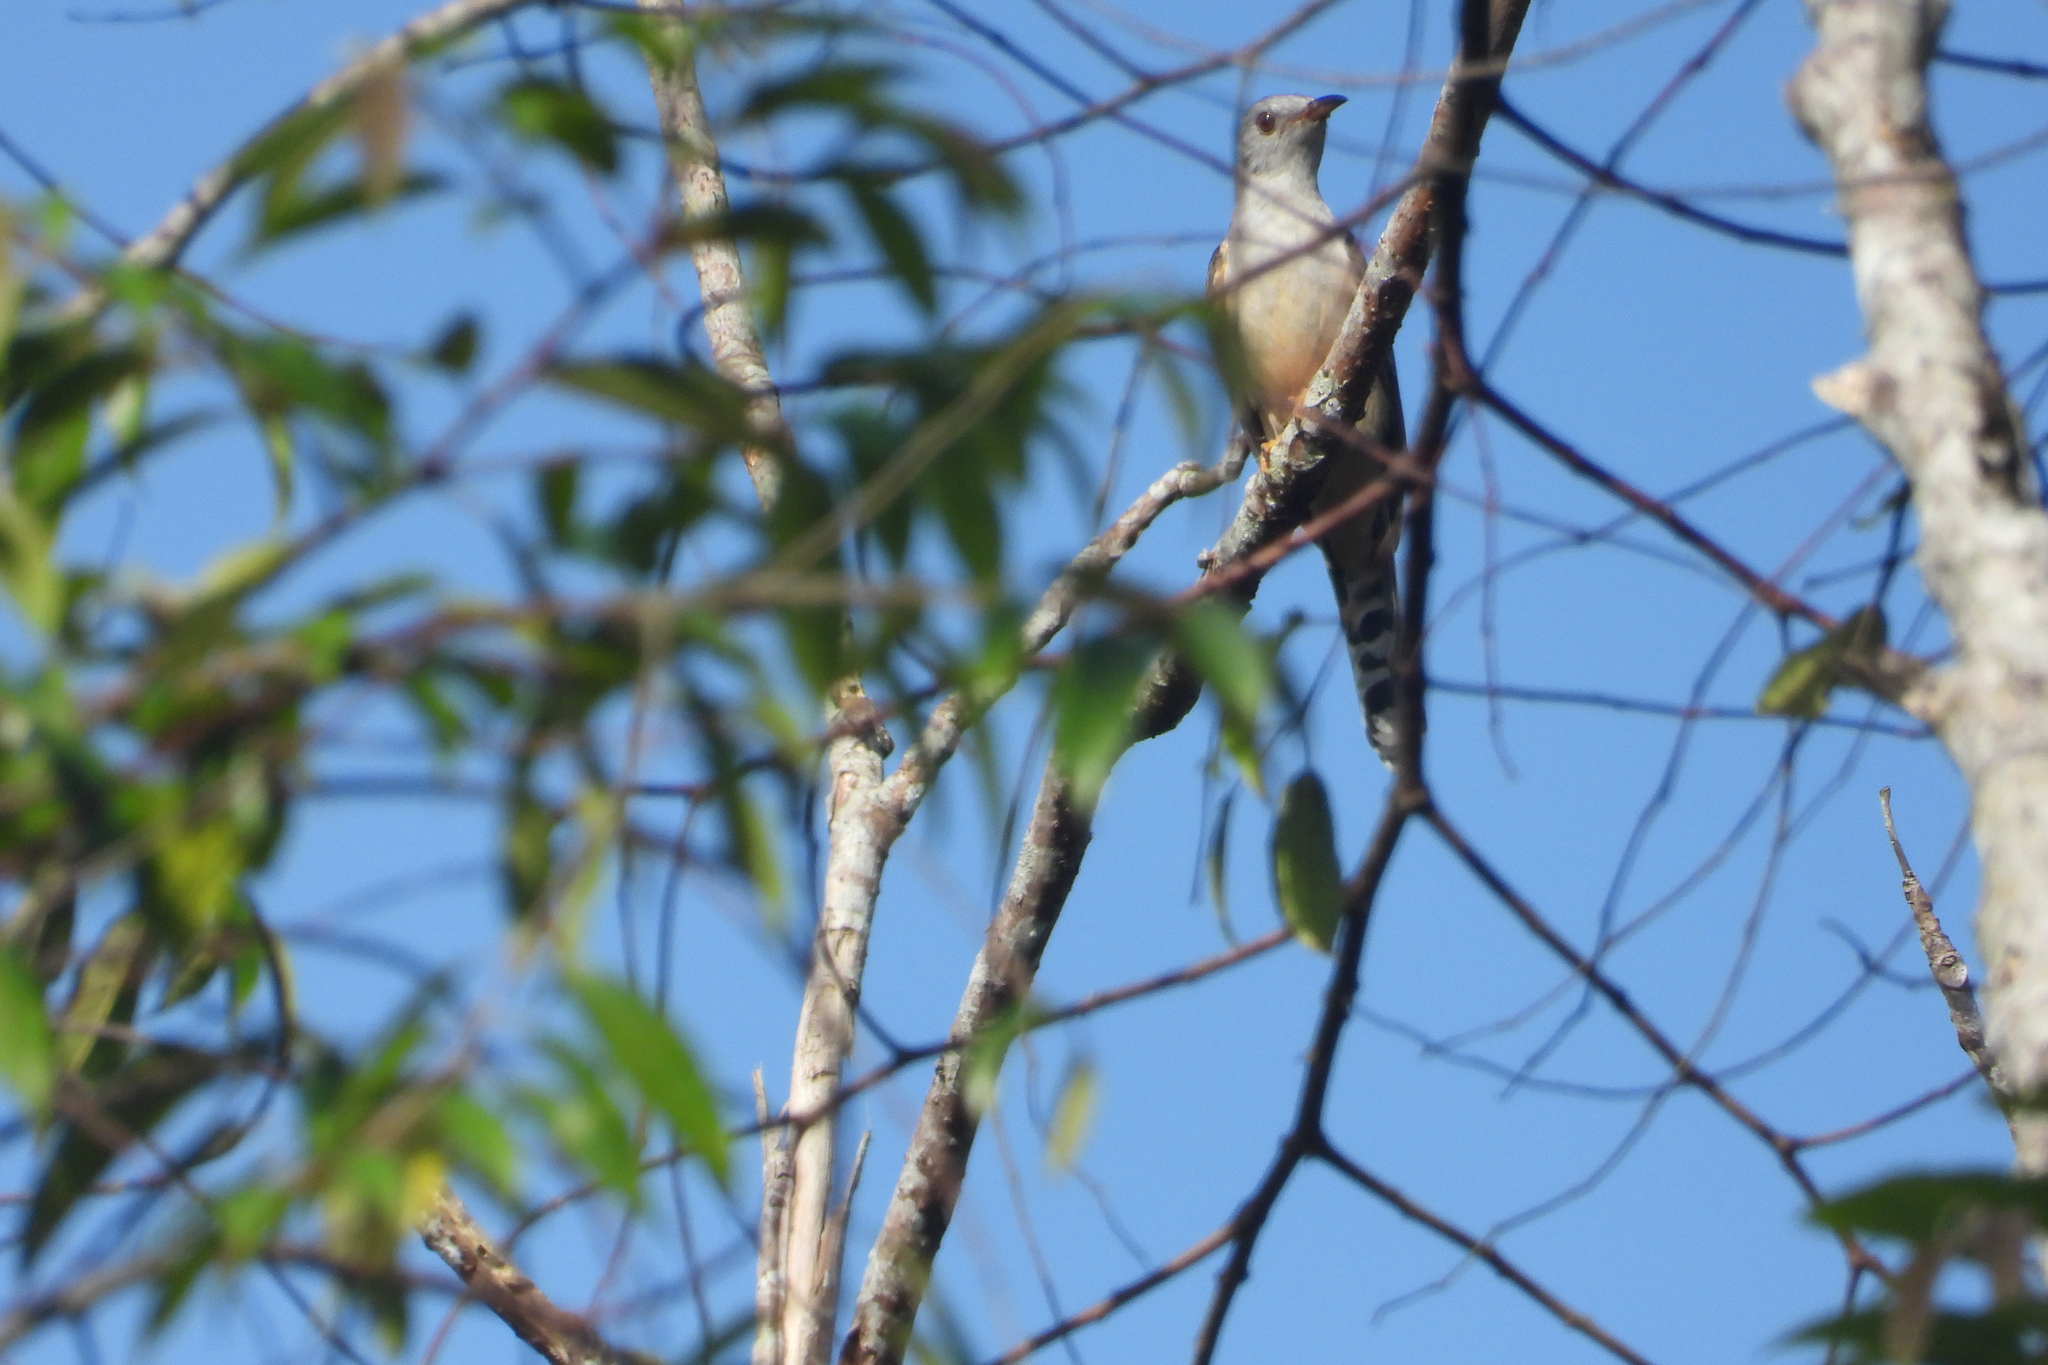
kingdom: Animalia
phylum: Chordata
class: Aves
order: Cuculiformes
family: Cuculidae
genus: Cacomantis
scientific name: Cacomantis merulinus
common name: Plaintive cuckoo
